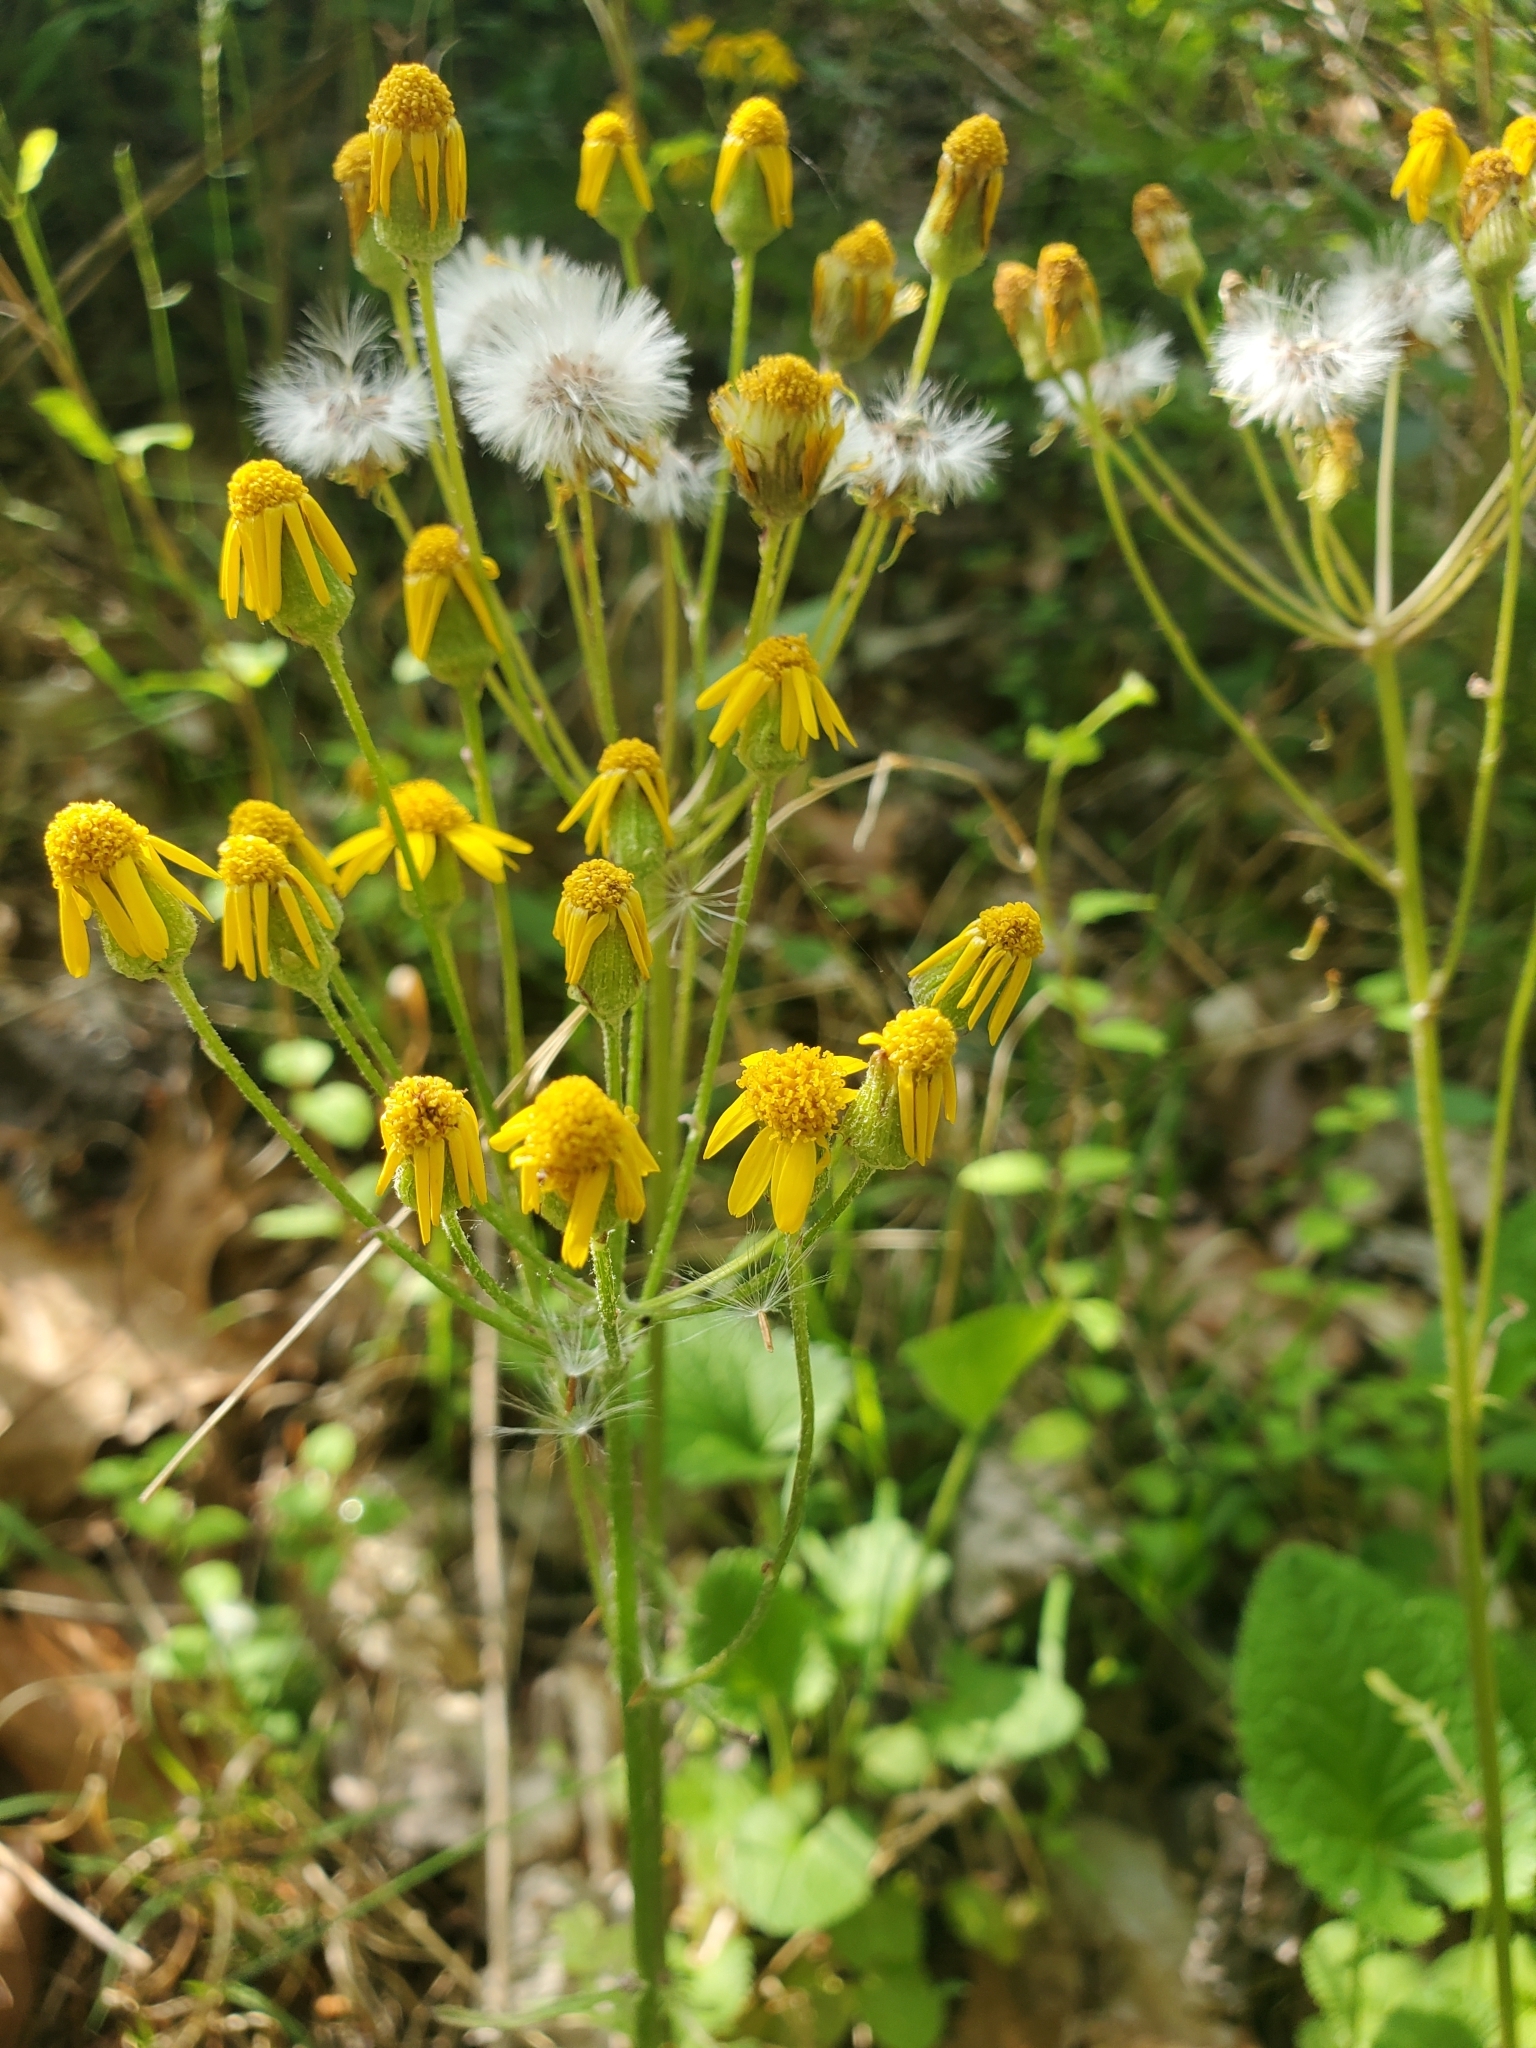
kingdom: Plantae
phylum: Tracheophyta
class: Magnoliopsida
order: Asterales
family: Asteraceae
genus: Packera
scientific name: Packera aurea
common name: Golden groundsel
